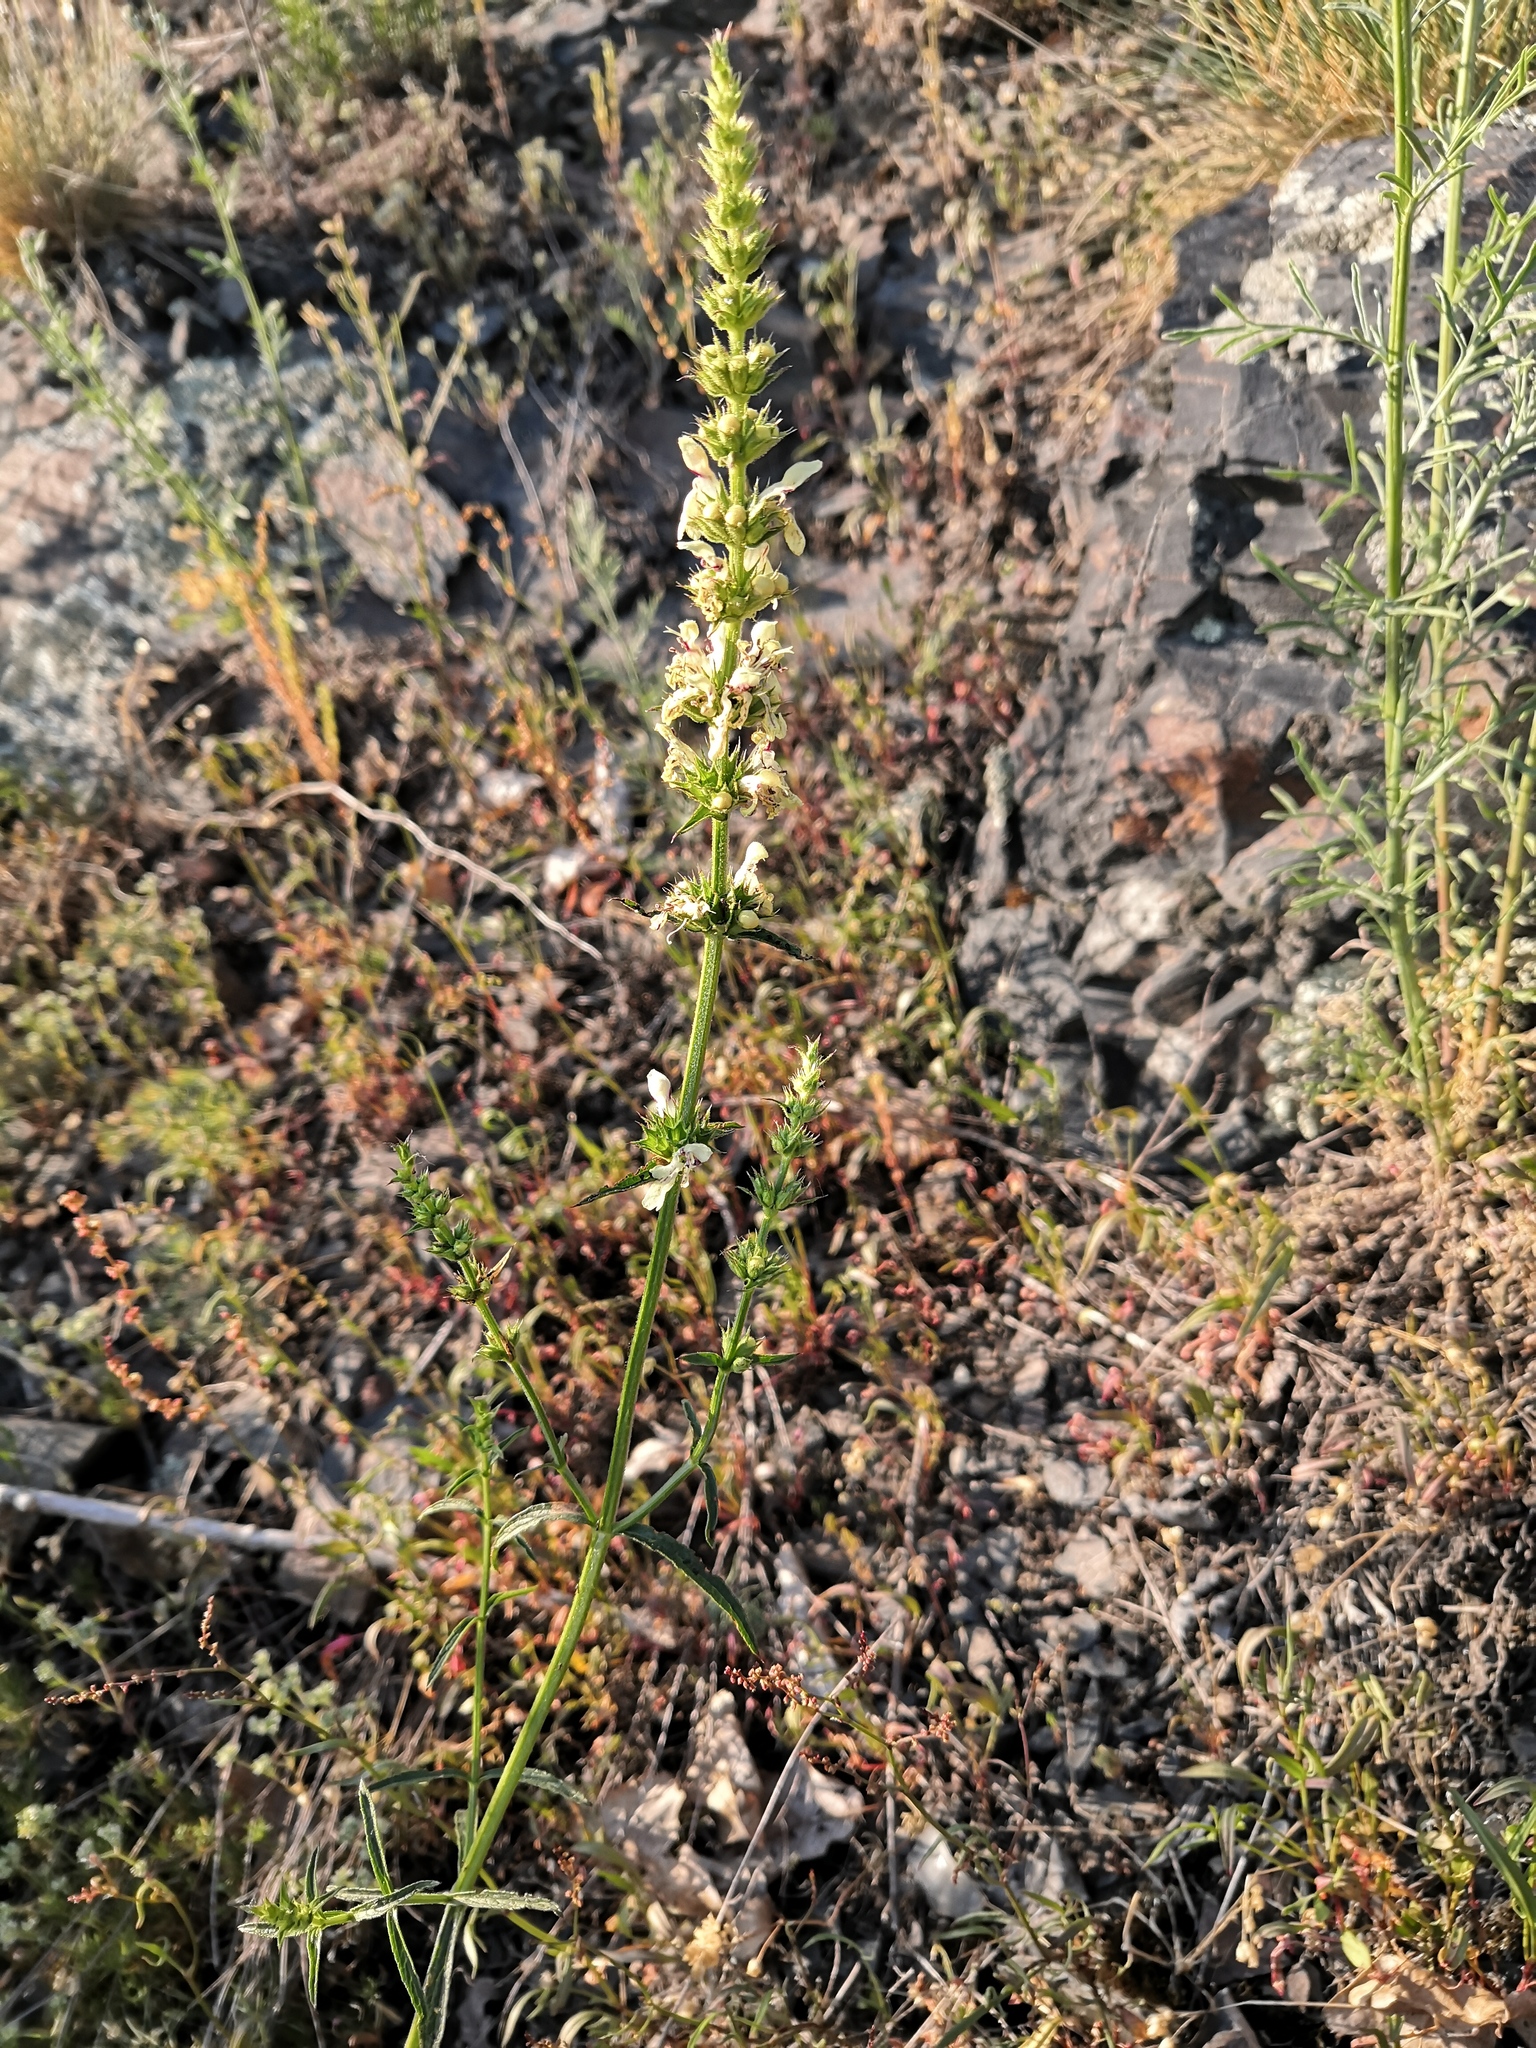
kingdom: Plantae
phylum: Tracheophyta
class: Magnoliopsida
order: Lamiales
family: Lamiaceae
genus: Stachys
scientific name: Stachys recta
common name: Perennial yellow-woundwort
